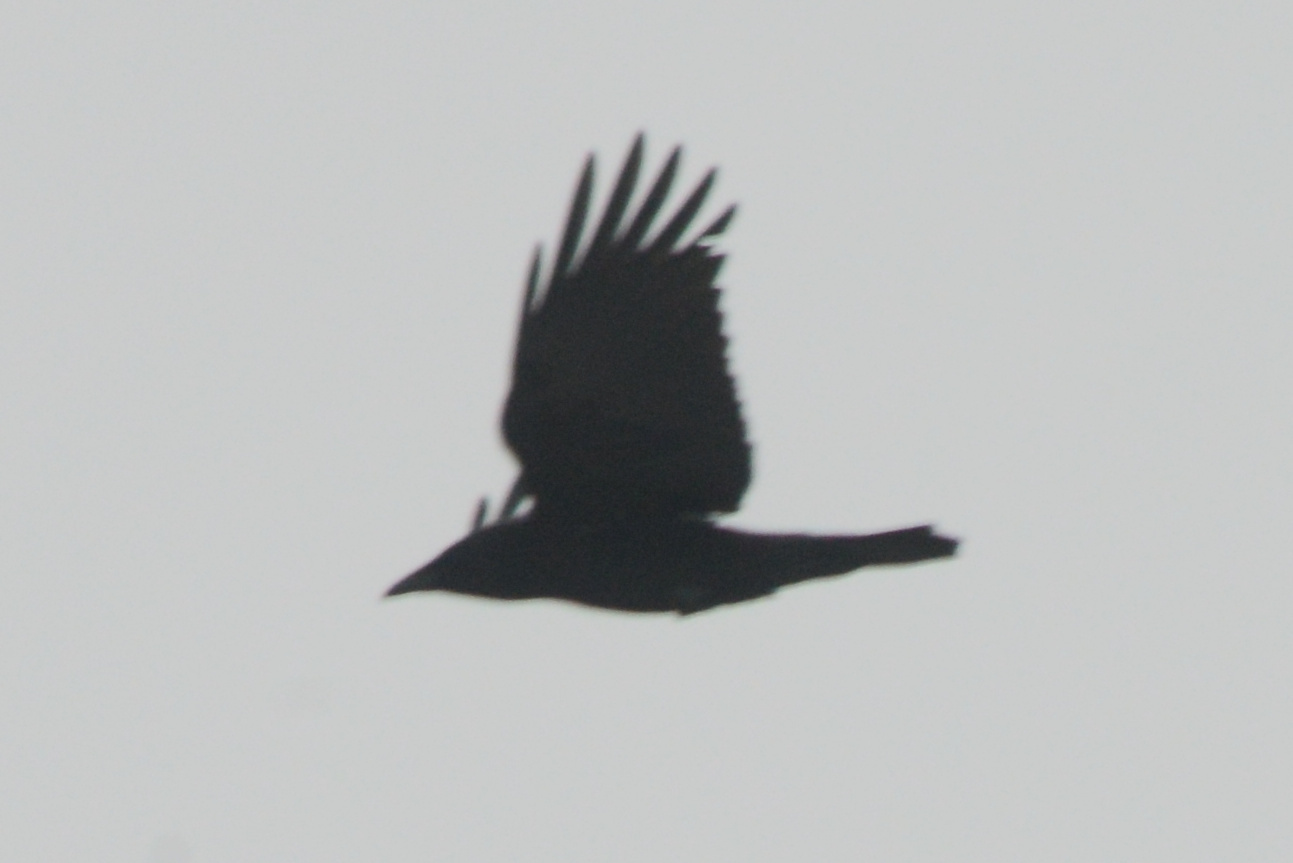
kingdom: Animalia
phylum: Chordata
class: Aves
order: Passeriformes
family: Corvidae
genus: Corvus
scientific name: Corvus brachyrhynchos
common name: American crow
